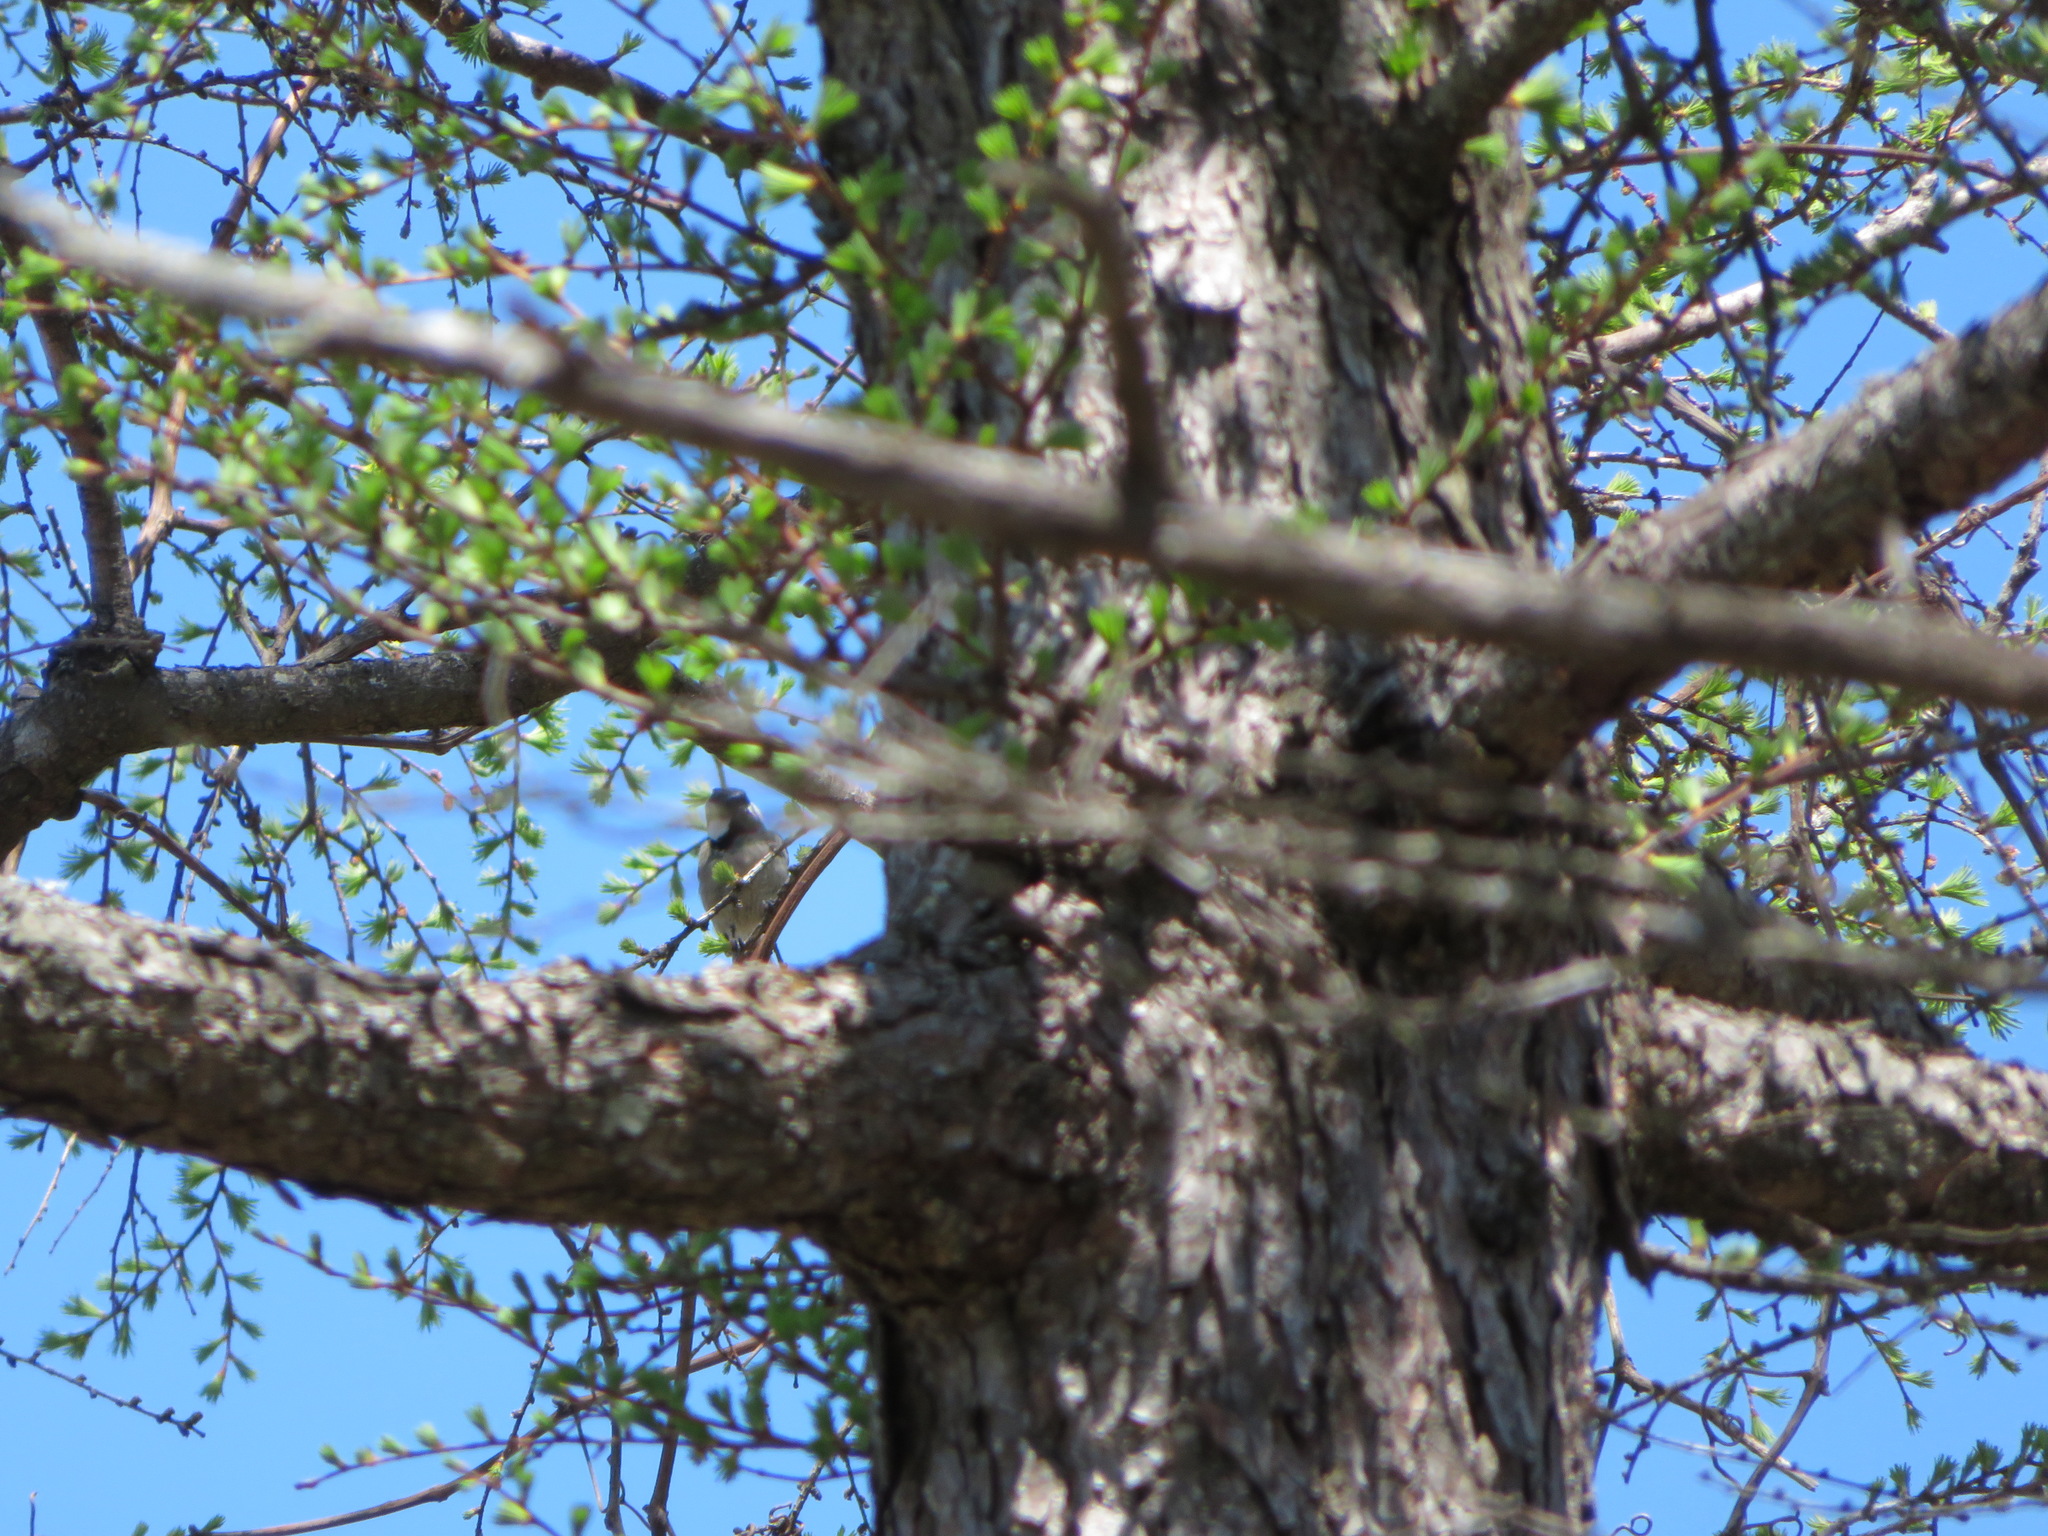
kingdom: Animalia
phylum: Chordata
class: Aves
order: Passeriformes
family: Paridae
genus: Periparus
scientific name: Periparus ater
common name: Coal tit
